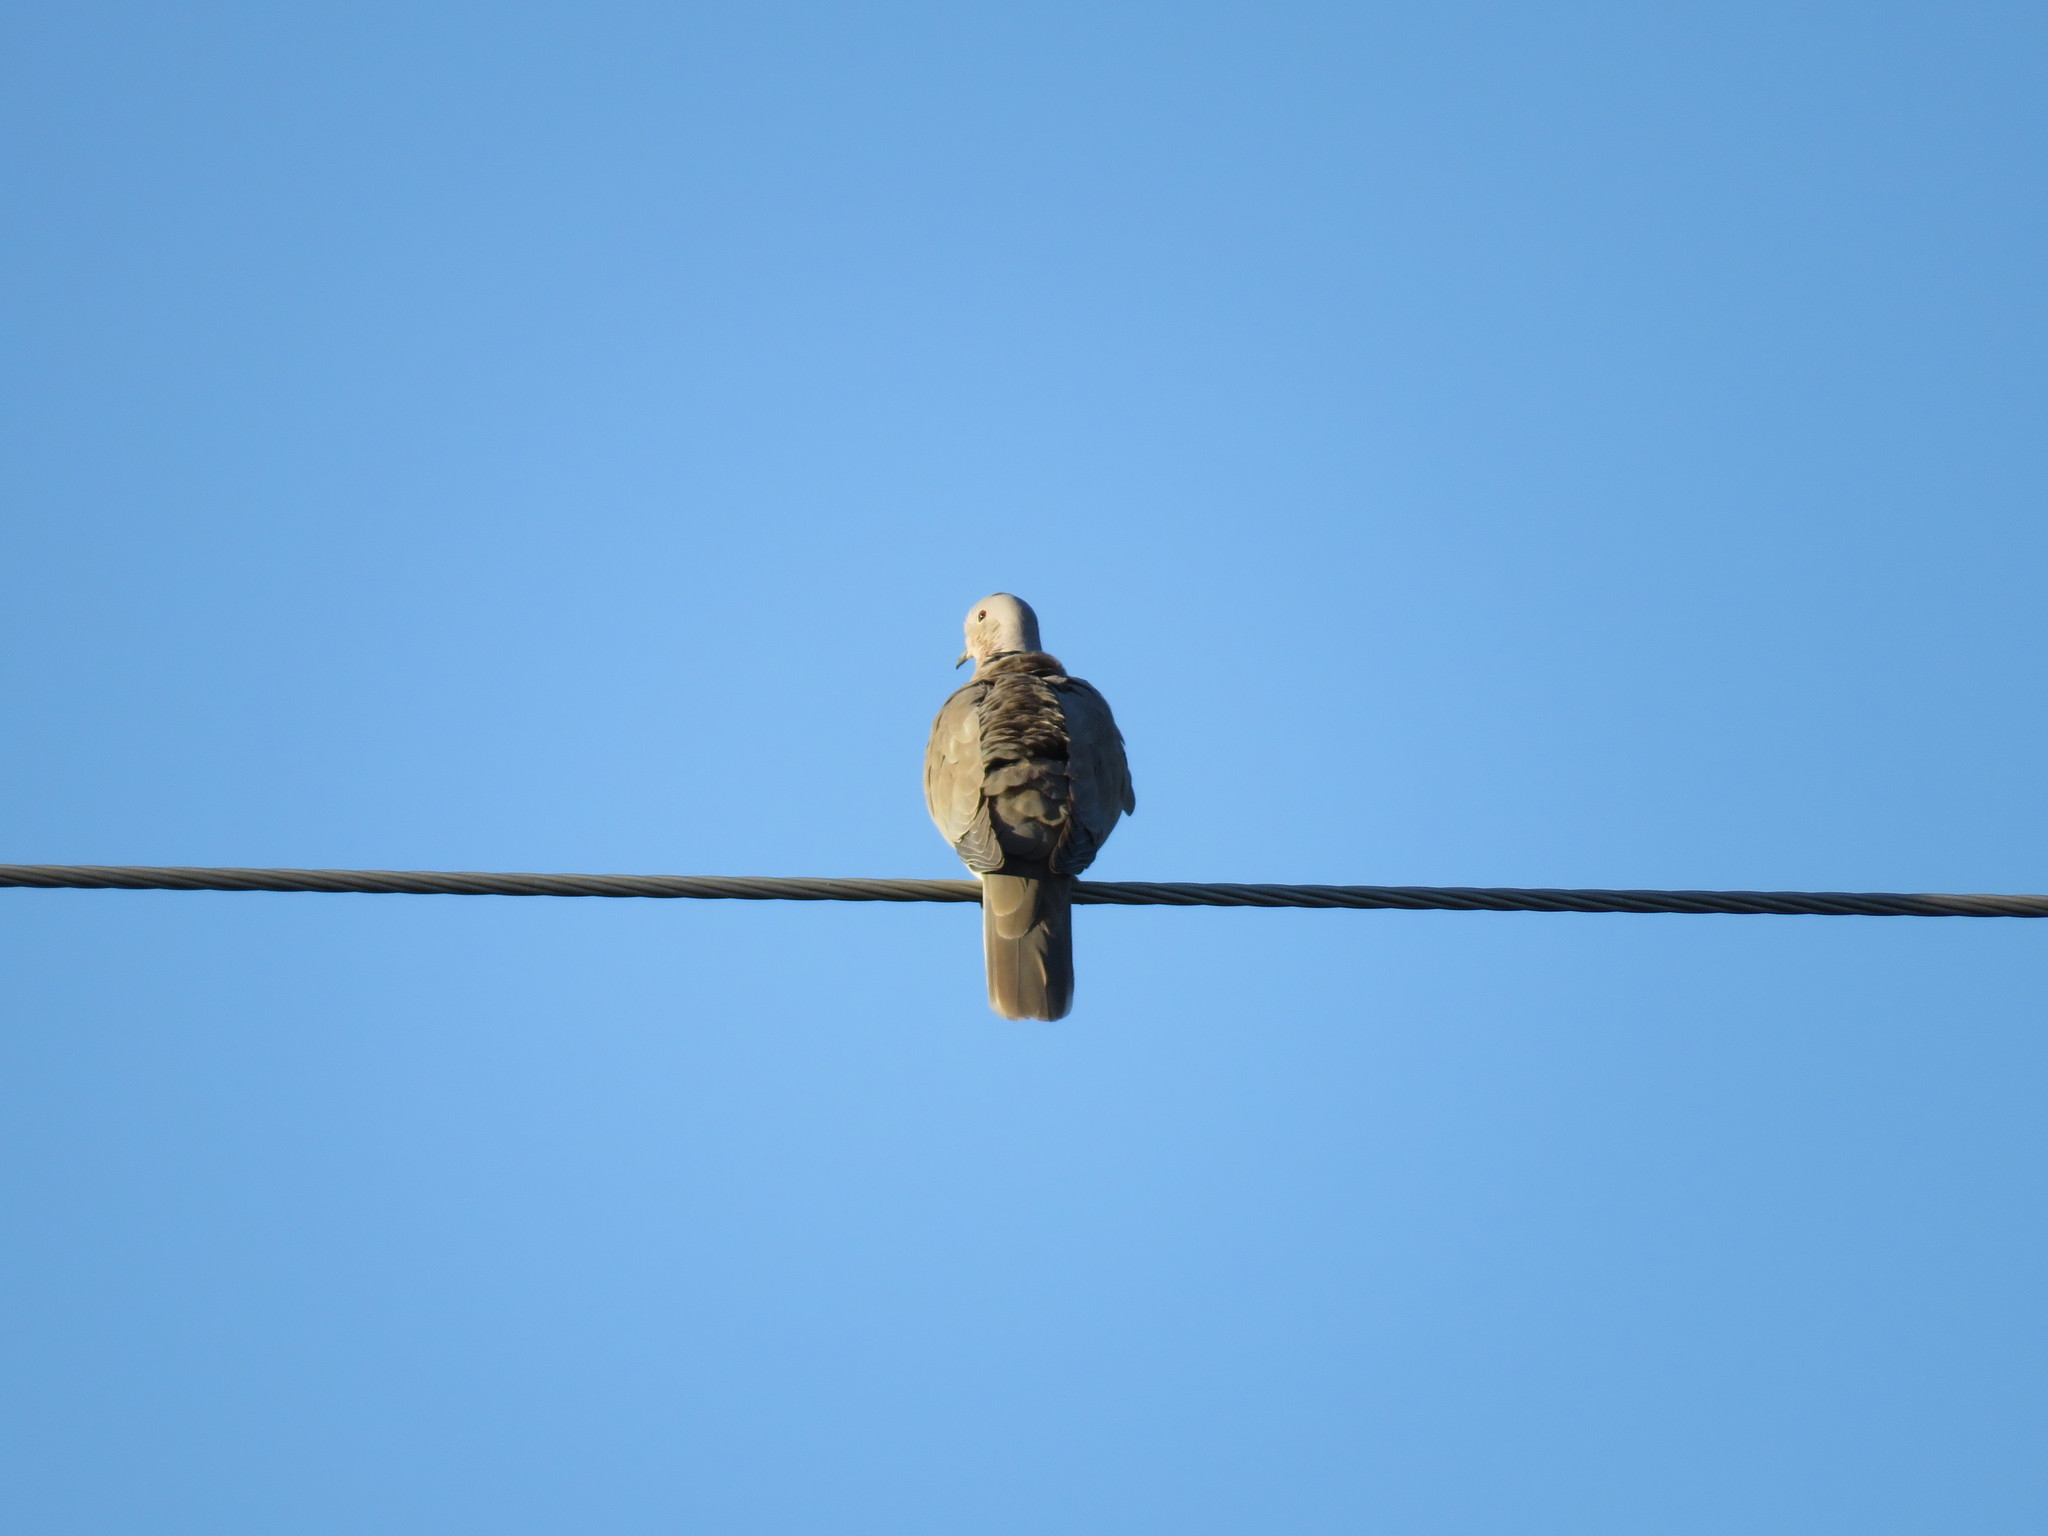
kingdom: Animalia
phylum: Chordata
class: Aves
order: Columbiformes
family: Columbidae
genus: Streptopelia
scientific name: Streptopelia decaocto
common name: Eurasian collared dove
